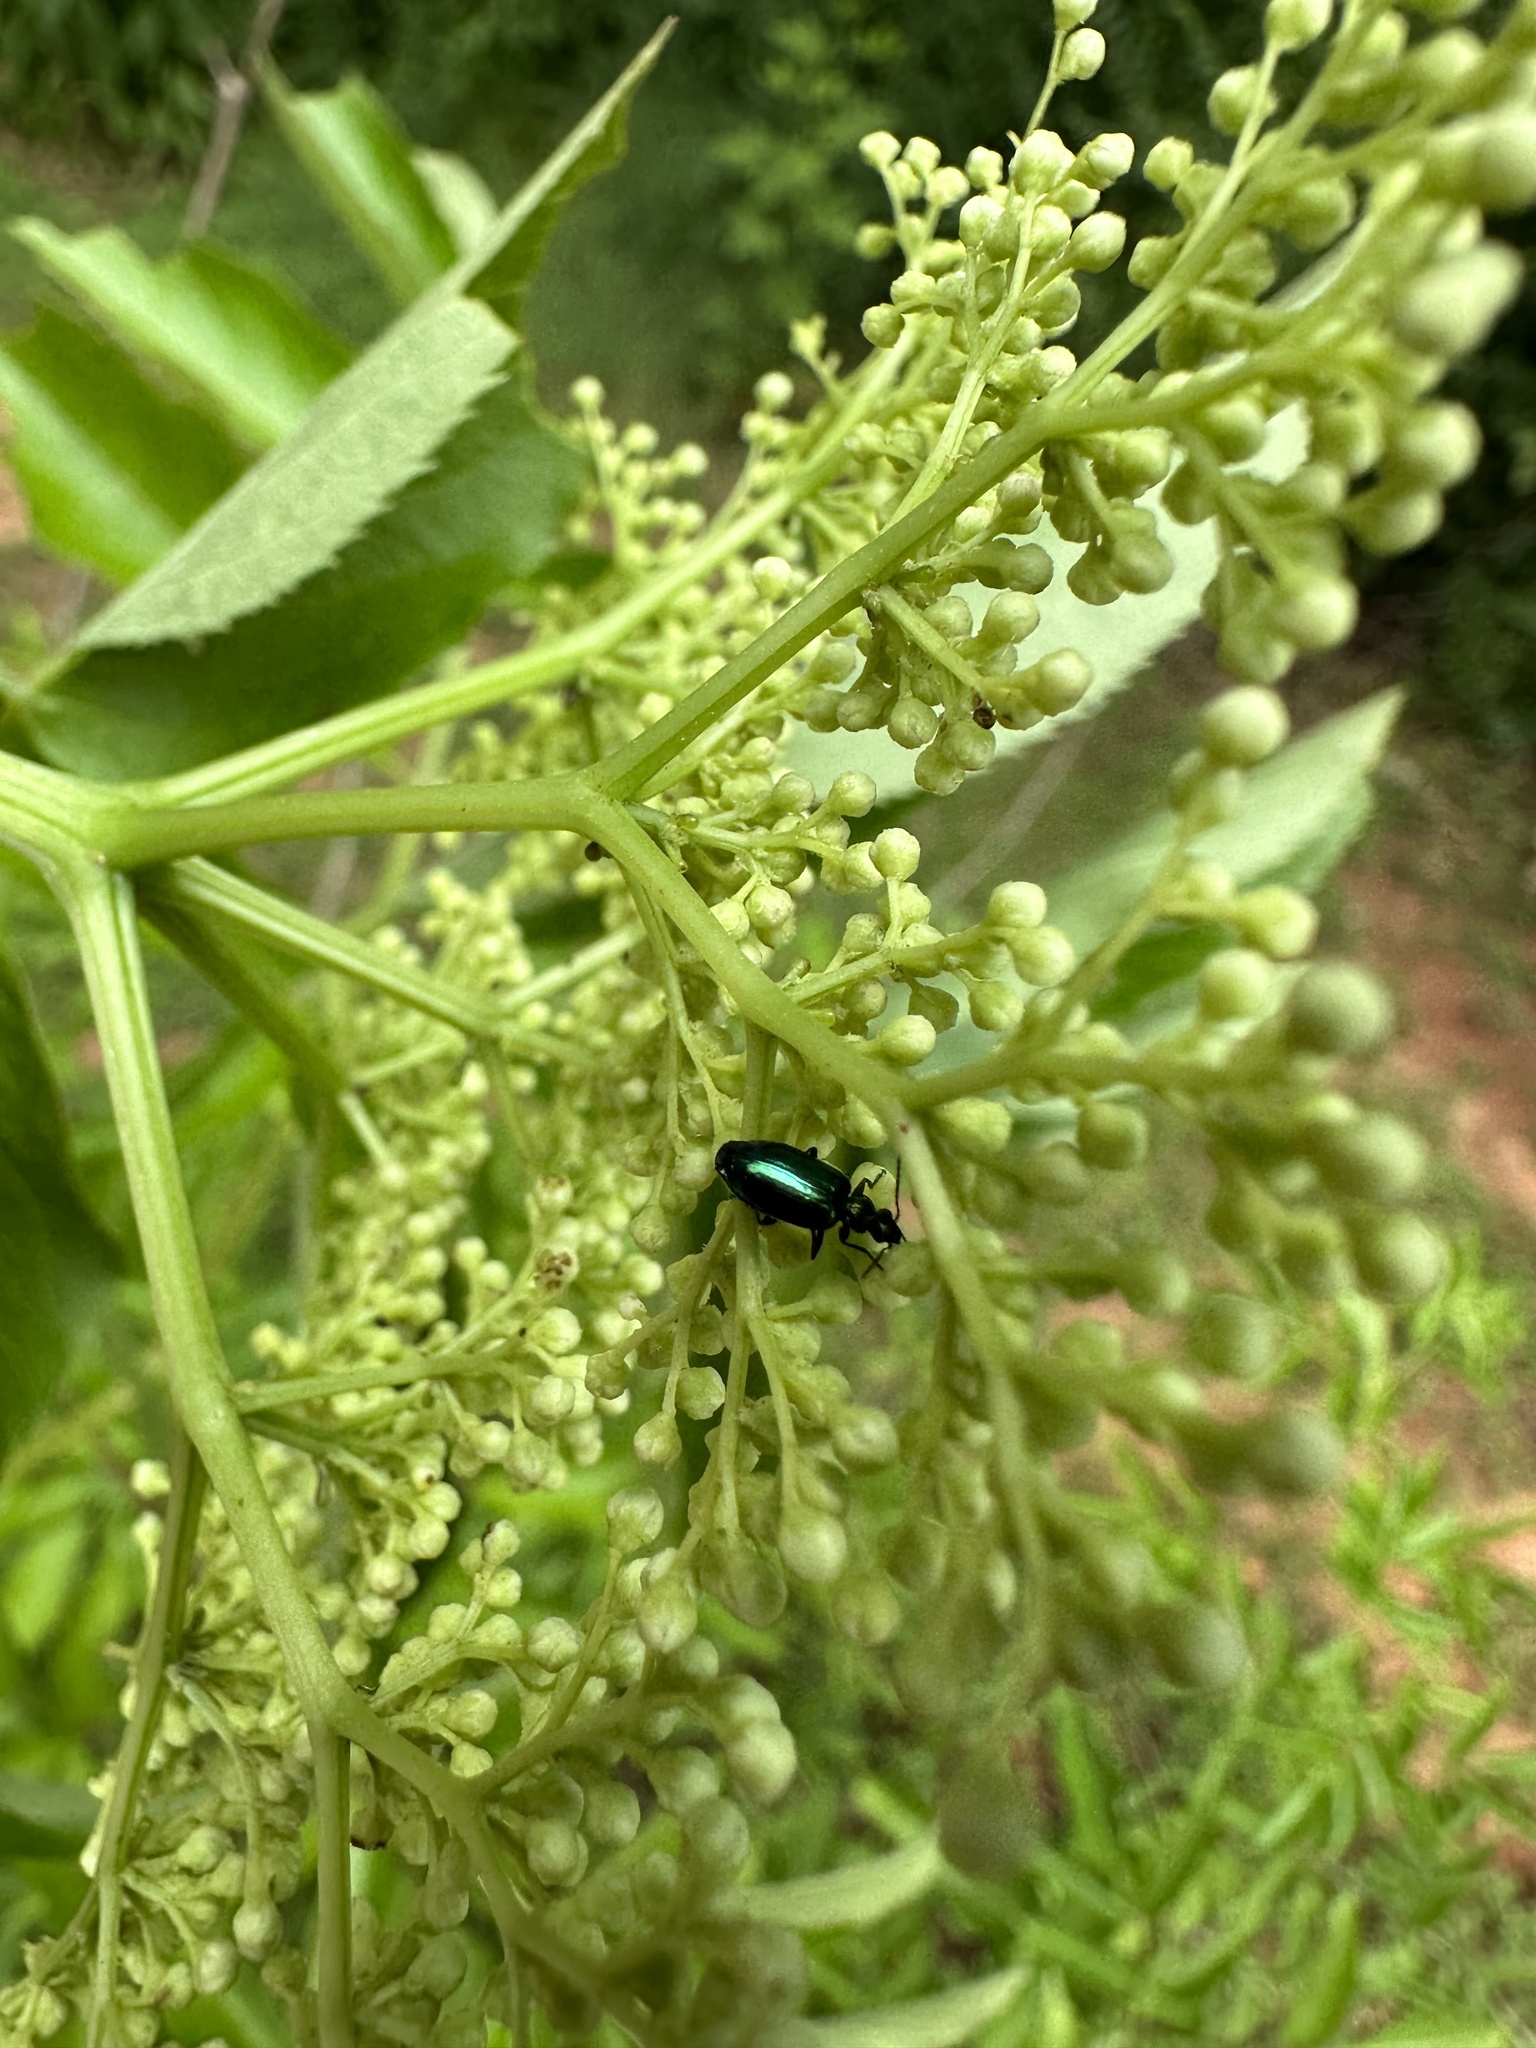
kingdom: Animalia
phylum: Arthropoda
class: Insecta
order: Coleoptera
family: Carabidae
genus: Lebia
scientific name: Lebia viridis
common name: Flower lebia beetle
